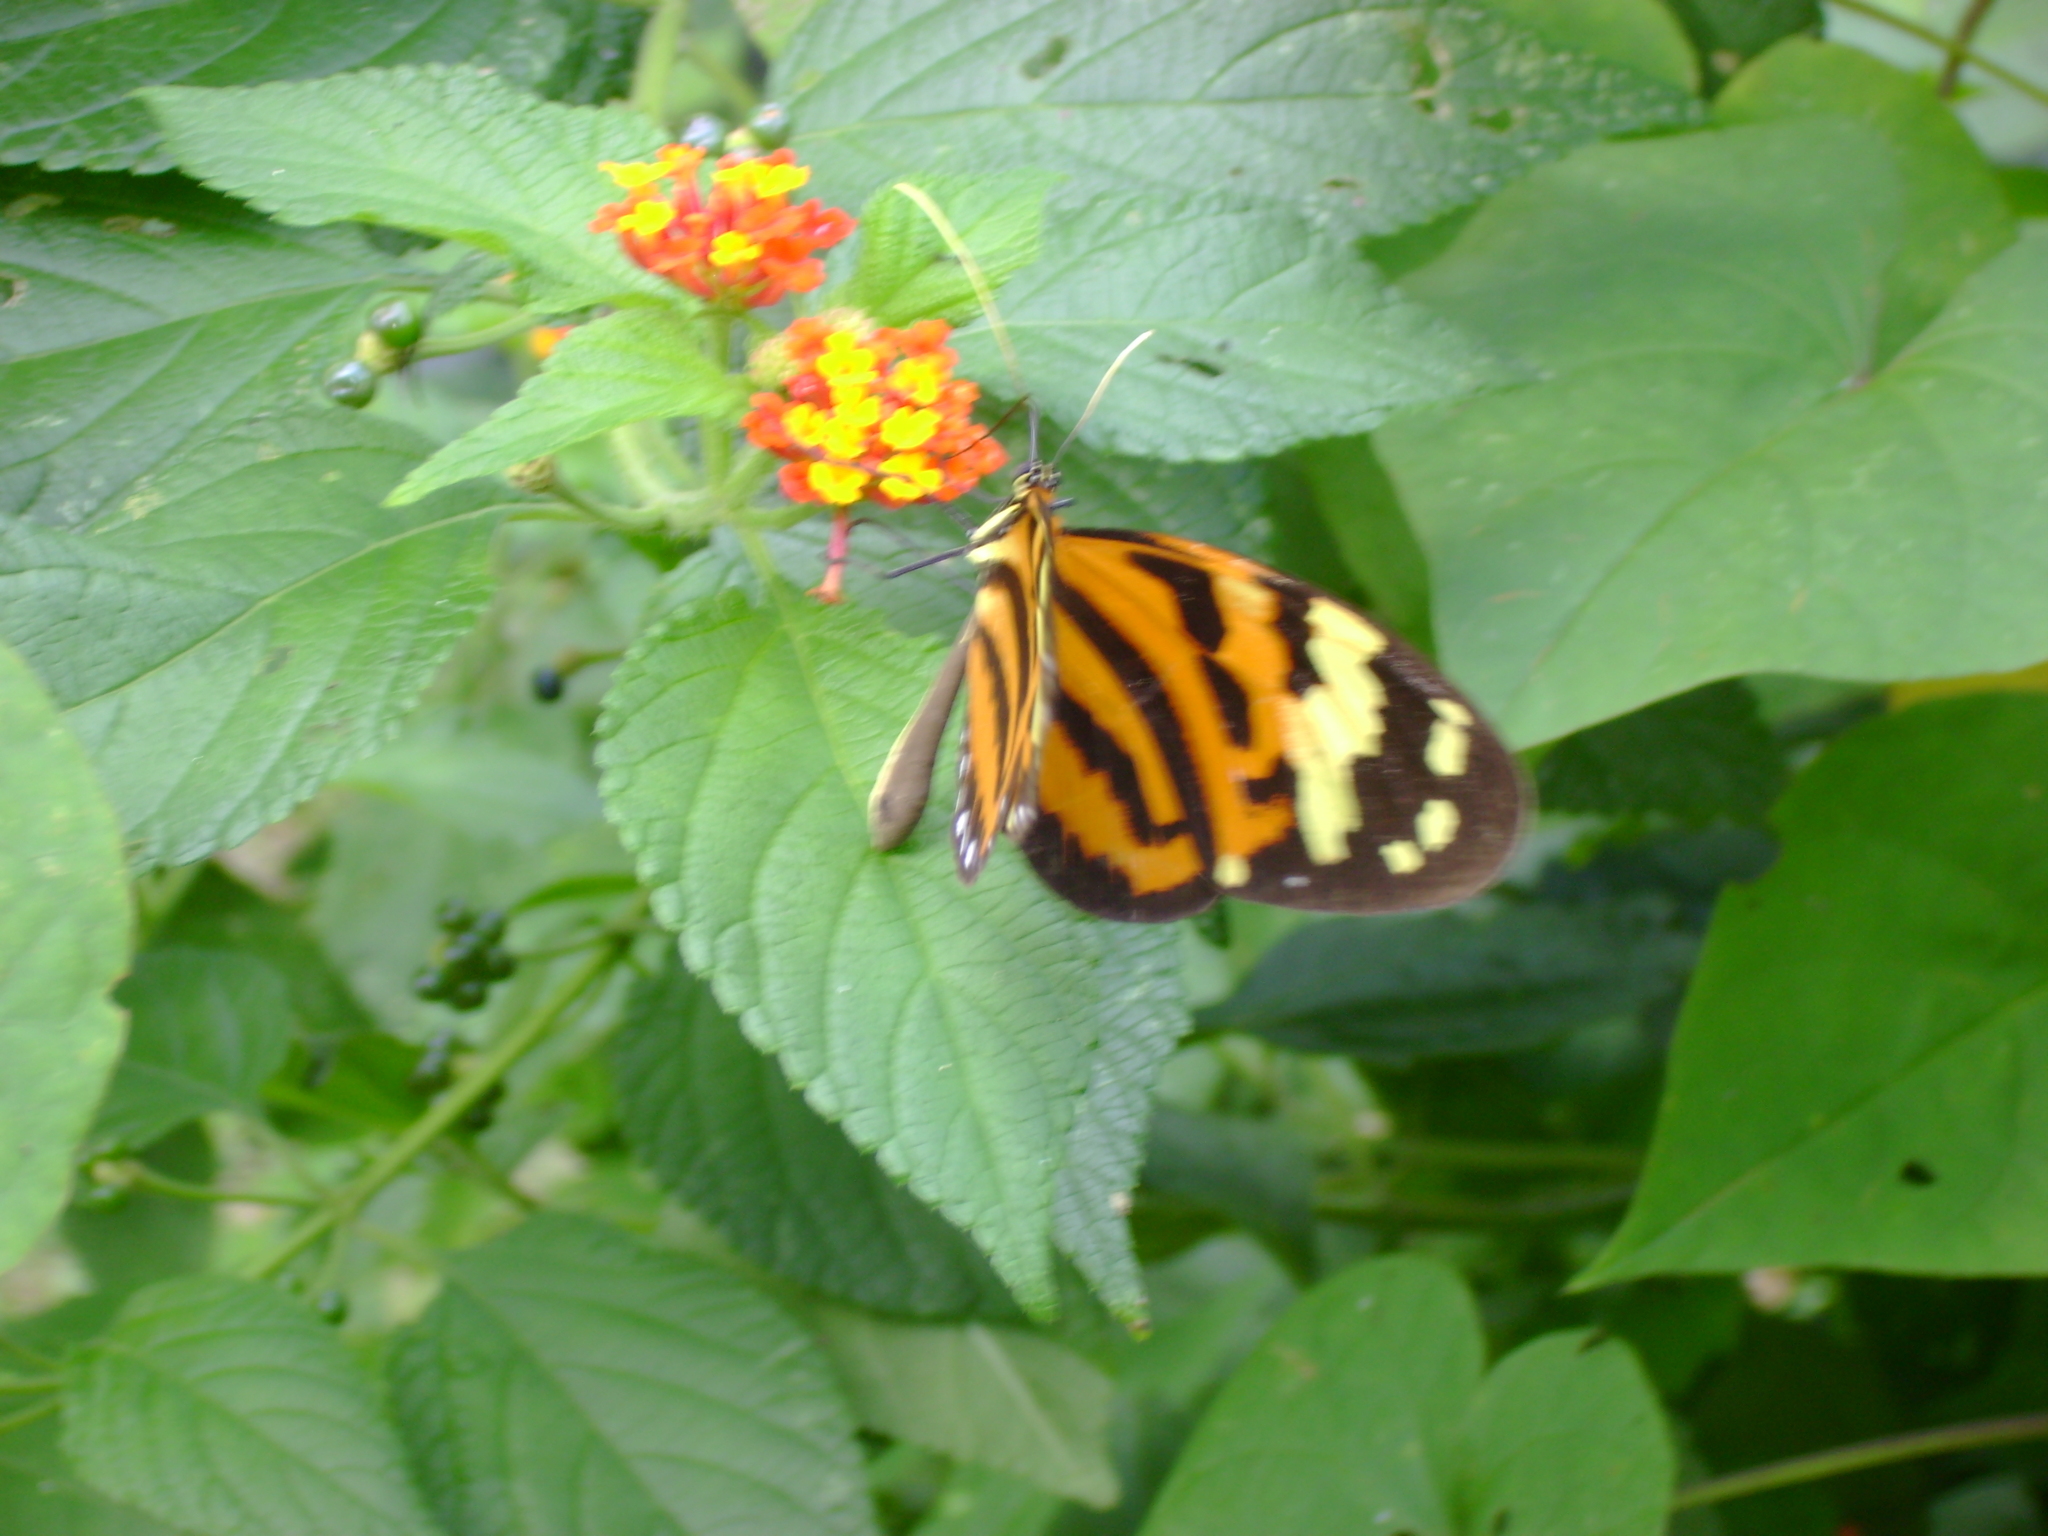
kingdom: Animalia
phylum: Arthropoda
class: Insecta
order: Lepidoptera
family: Nymphalidae
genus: Melinaea
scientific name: Melinaea lilis
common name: Mimic tigerwing
